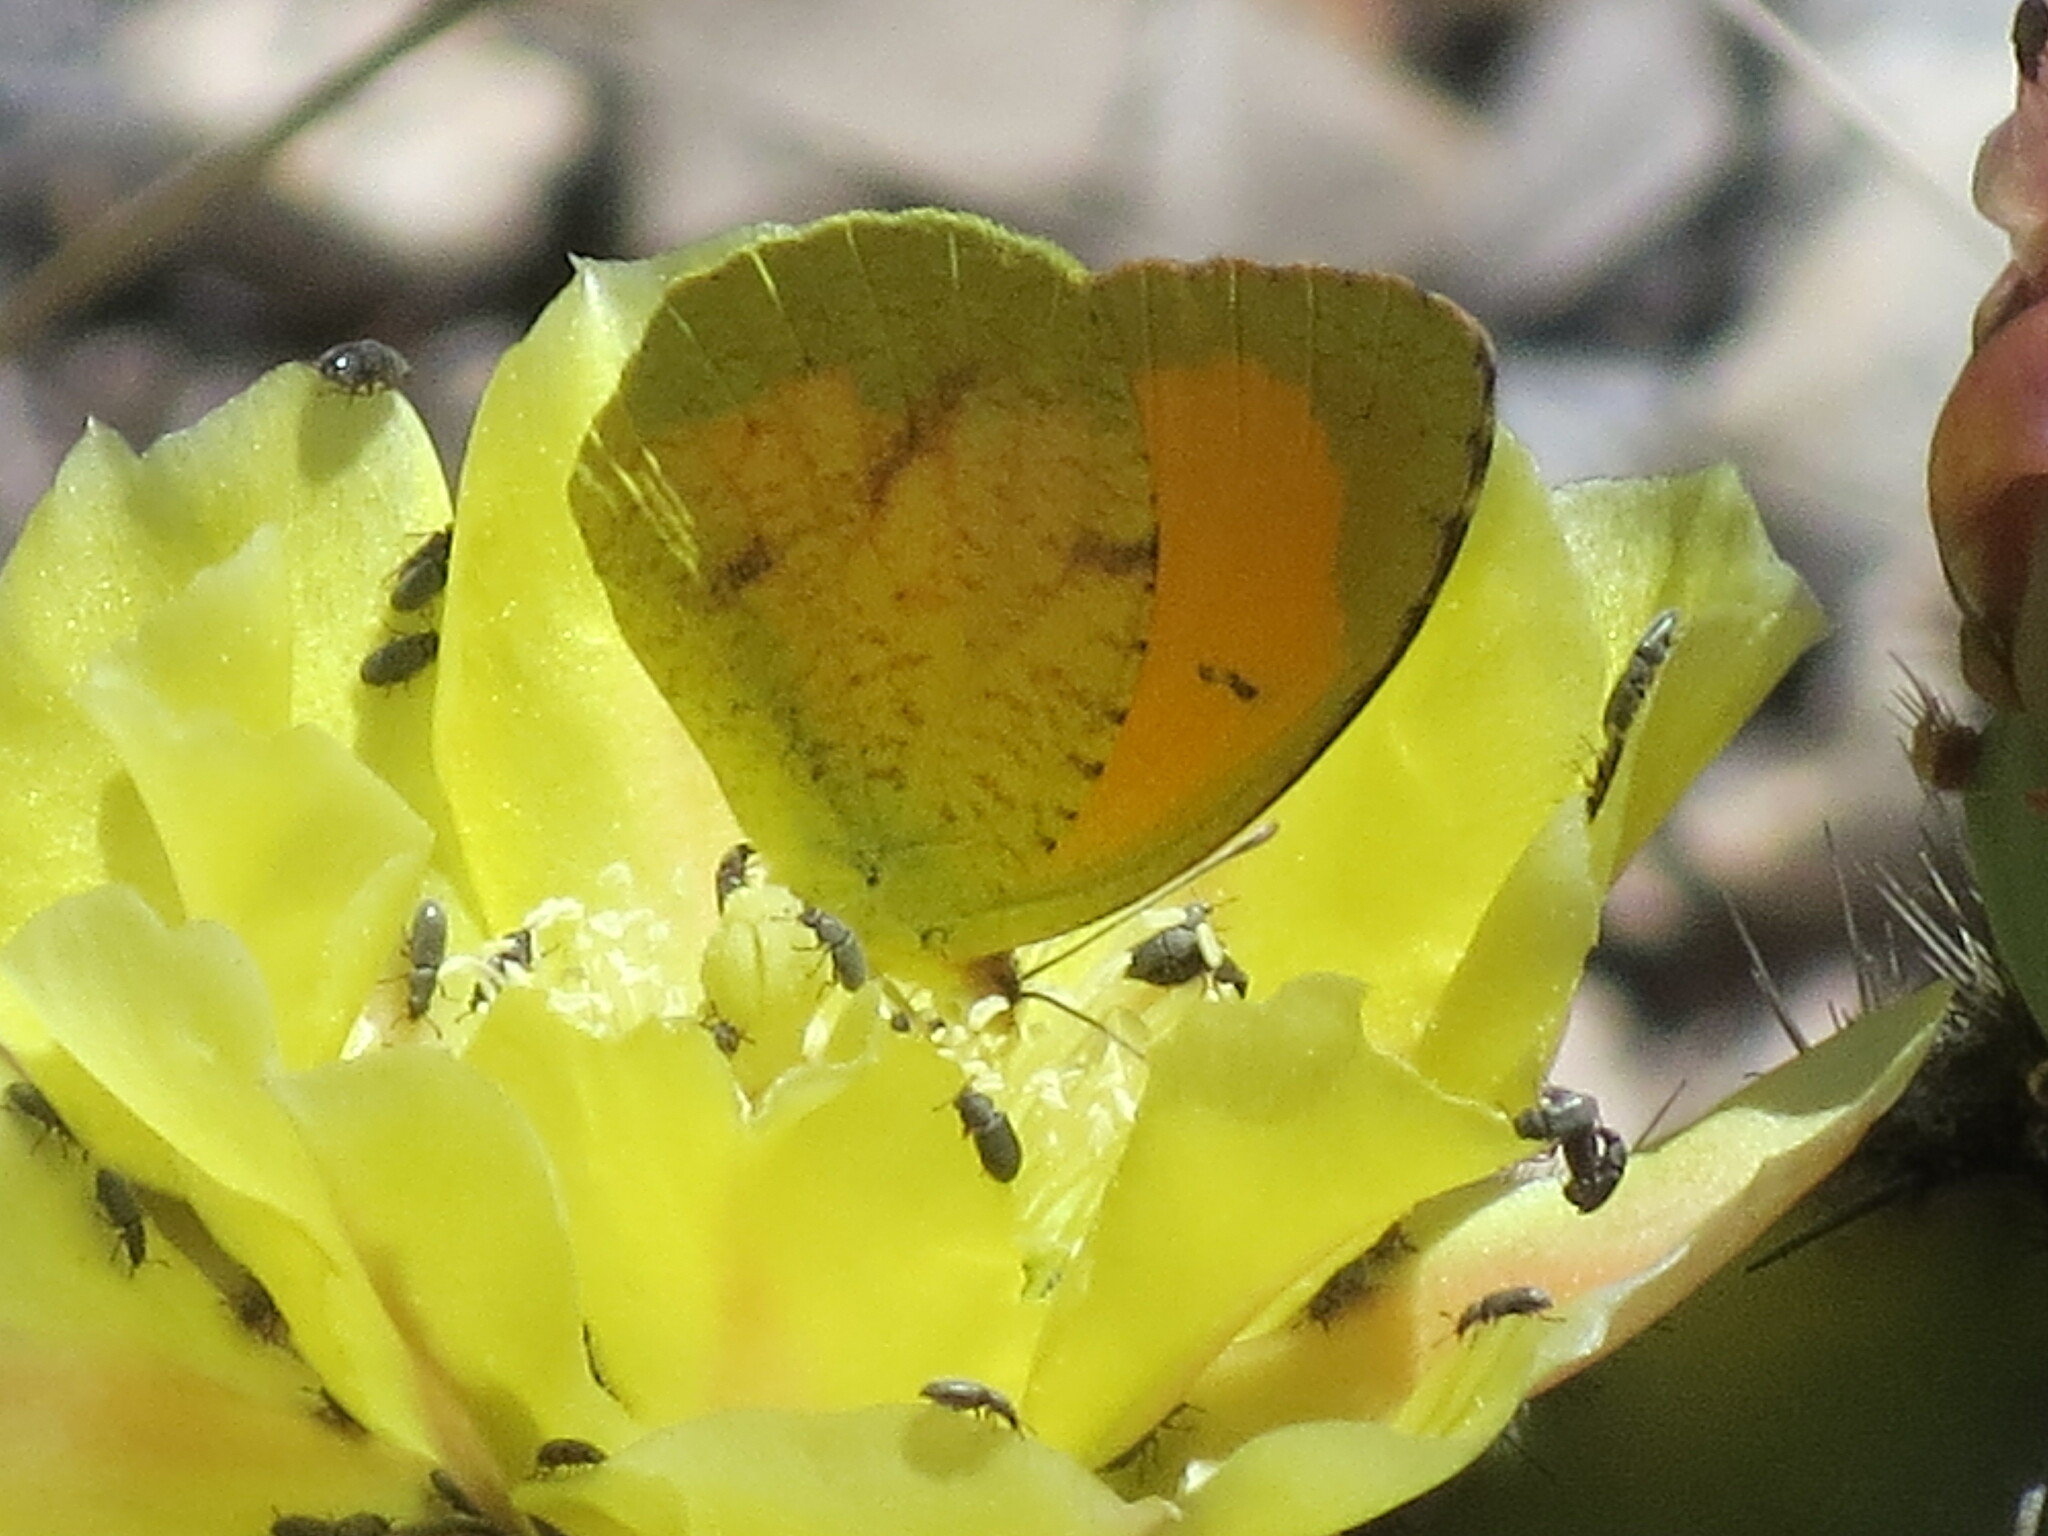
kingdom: Animalia
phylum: Arthropoda
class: Insecta
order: Lepidoptera
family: Pieridae
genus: Abaeis
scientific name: Abaeis nicippe
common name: Sleepy orange
